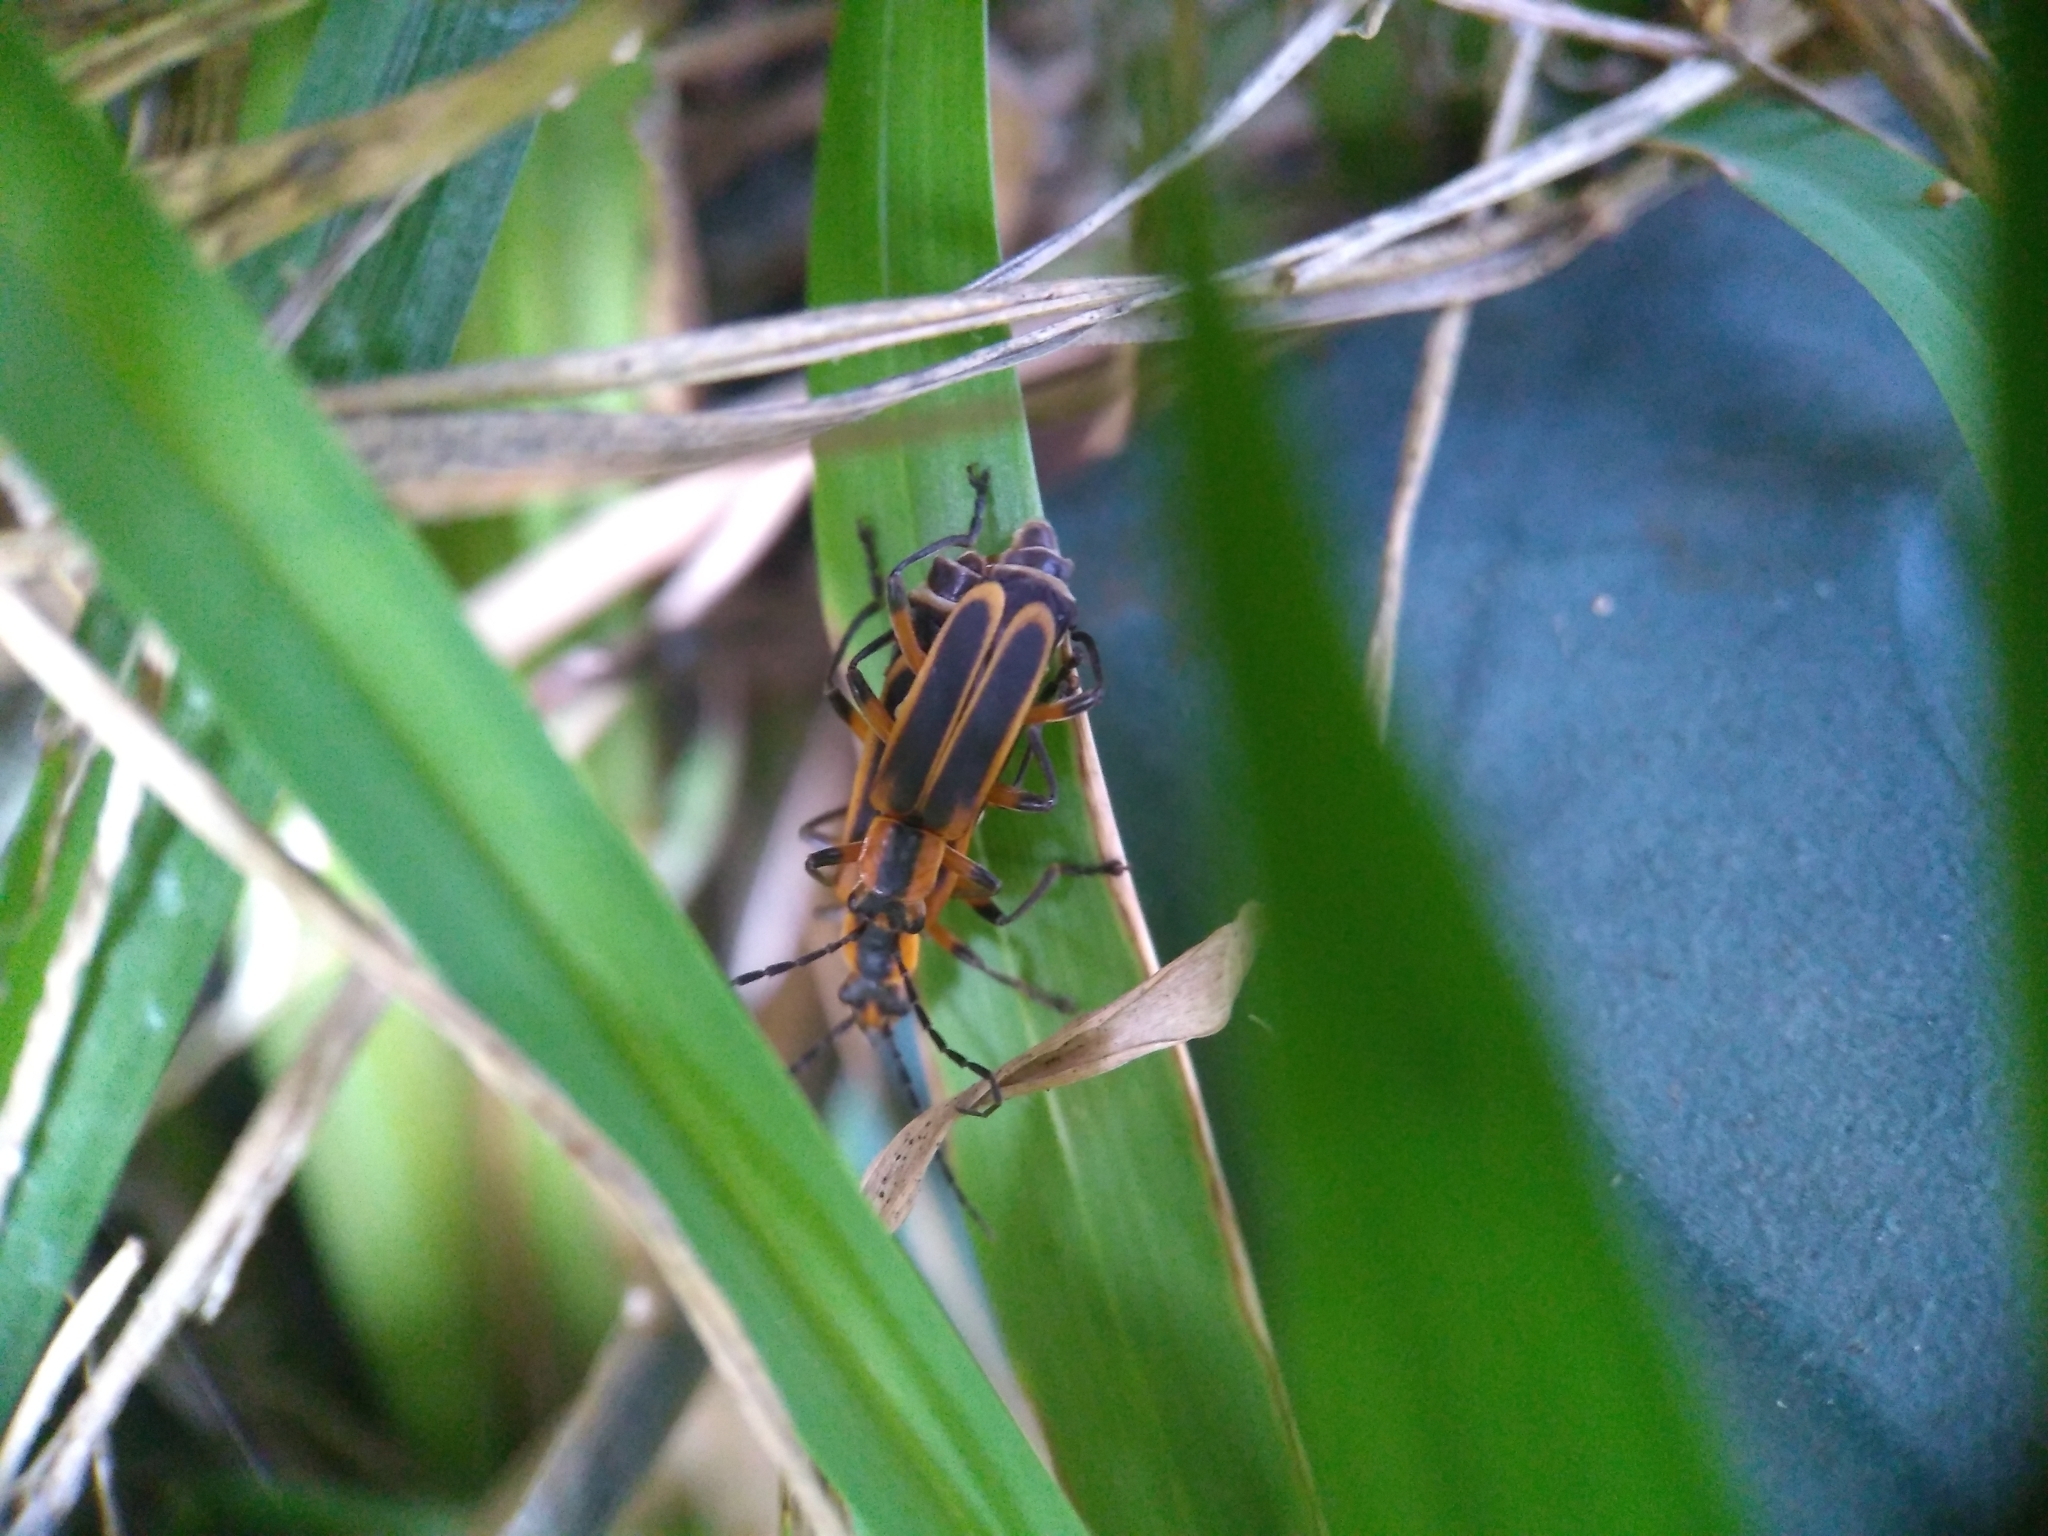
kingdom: Animalia
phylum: Arthropoda
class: Insecta
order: Coleoptera
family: Cantharidae
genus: Chauliognathus
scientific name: Chauliognathus marginatus
